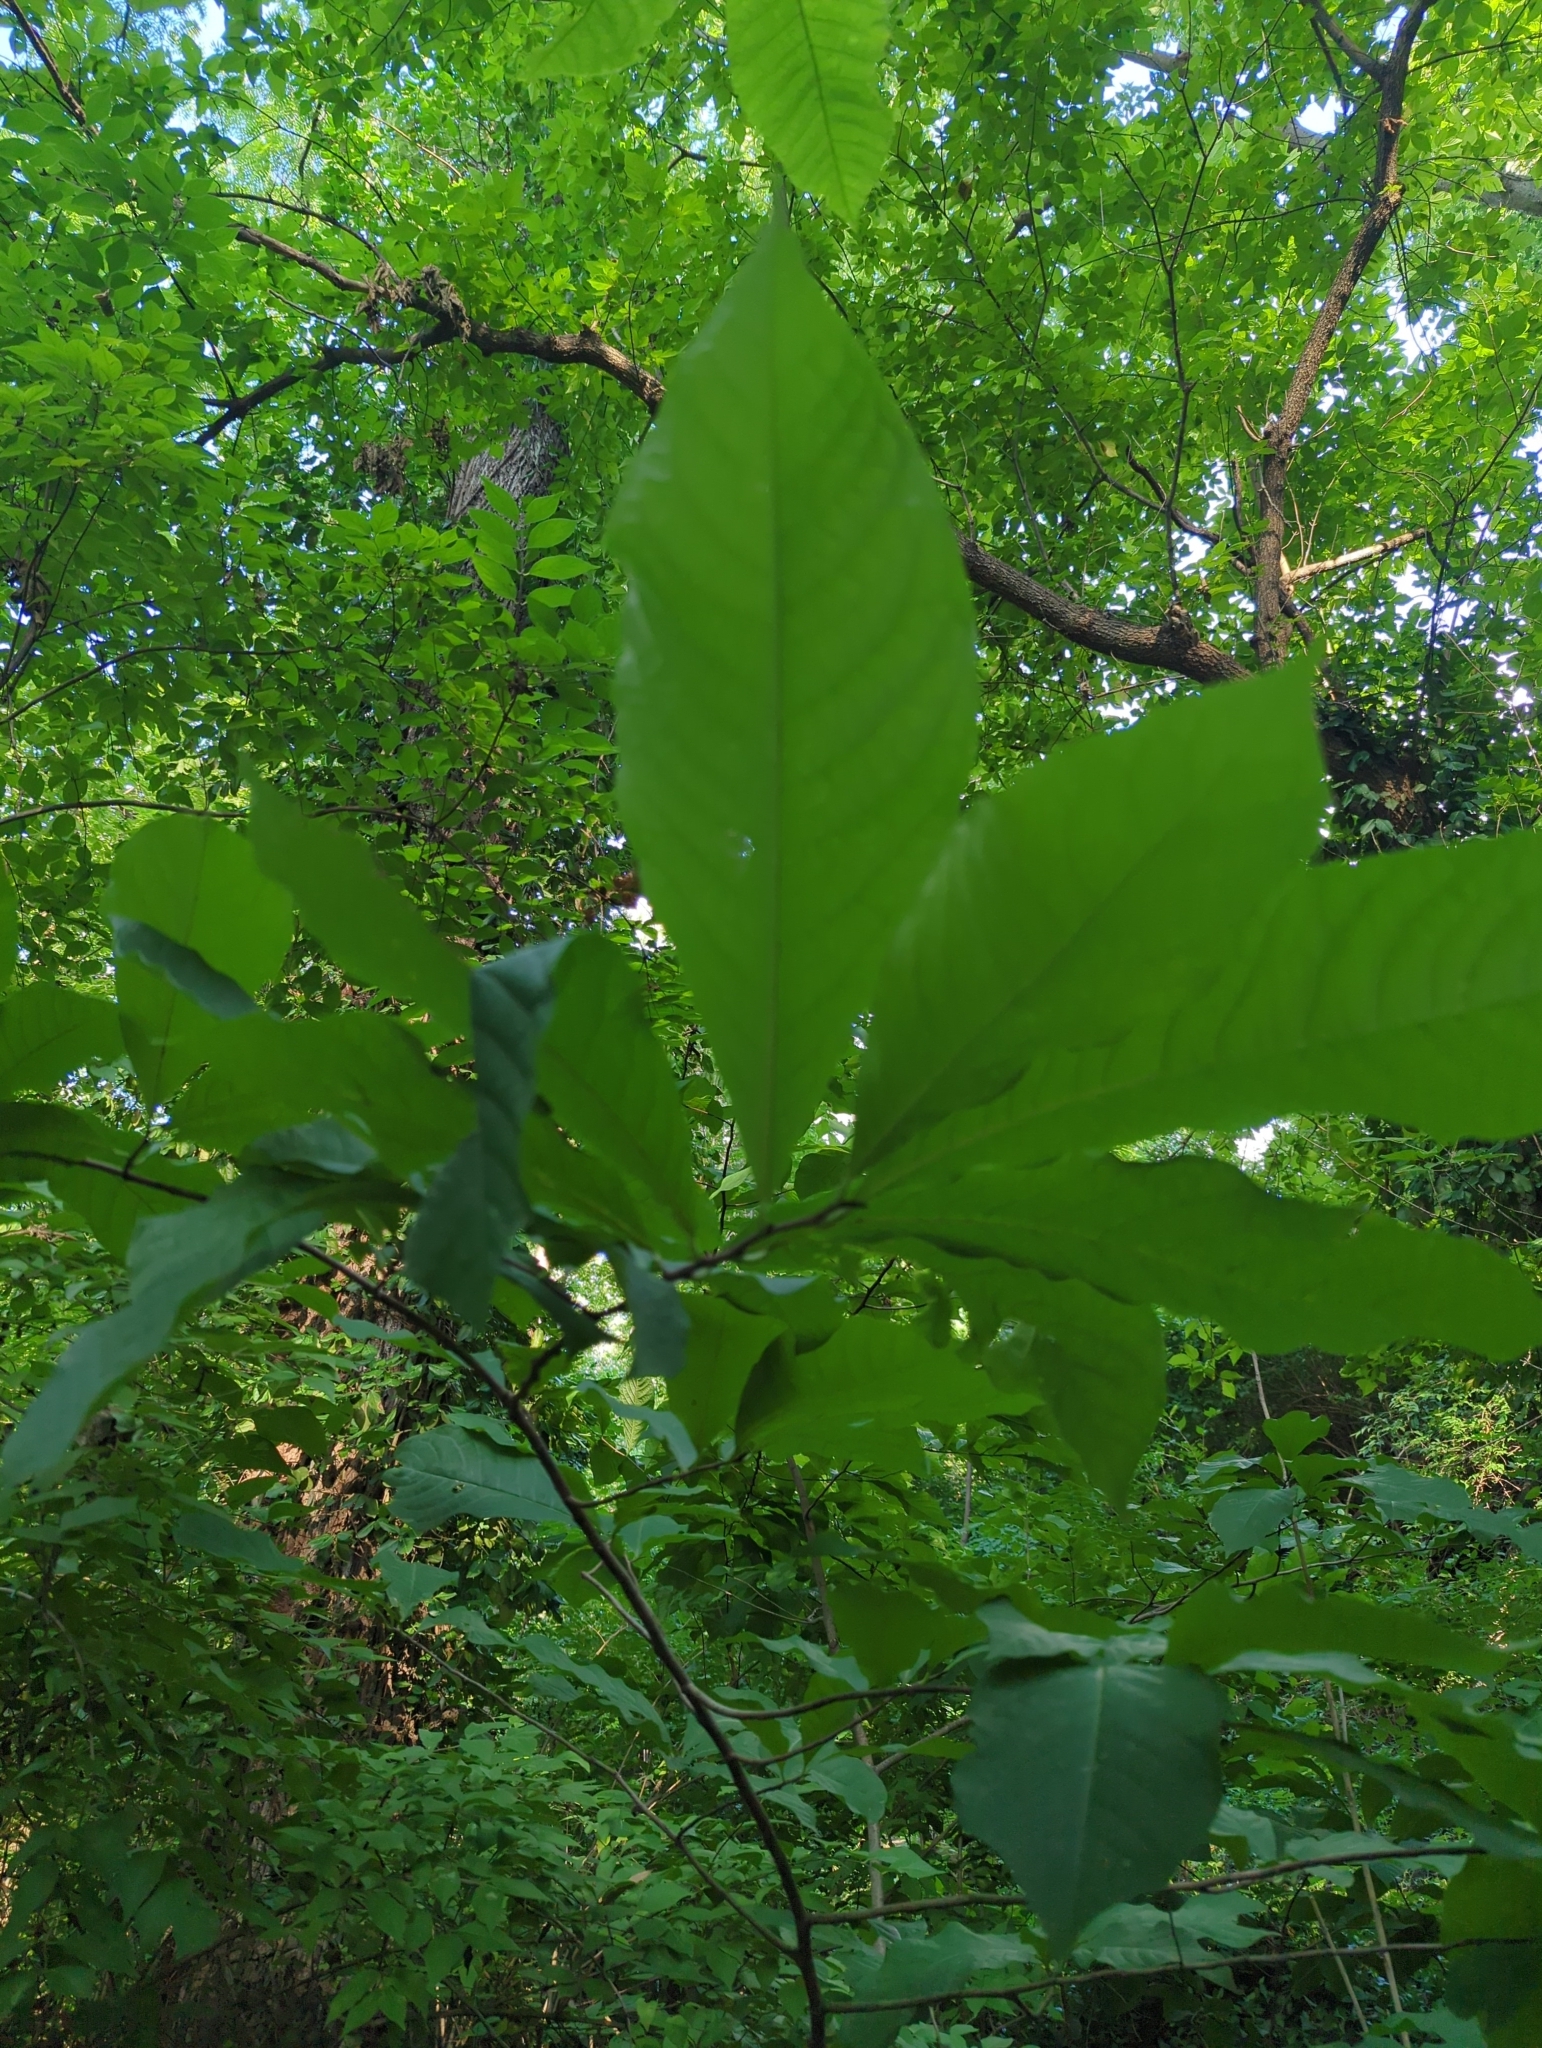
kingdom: Plantae
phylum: Tracheophyta
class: Magnoliopsida
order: Magnoliales
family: Annonaceae
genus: Asimina
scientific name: Asimina triloba
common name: Dog-banana
